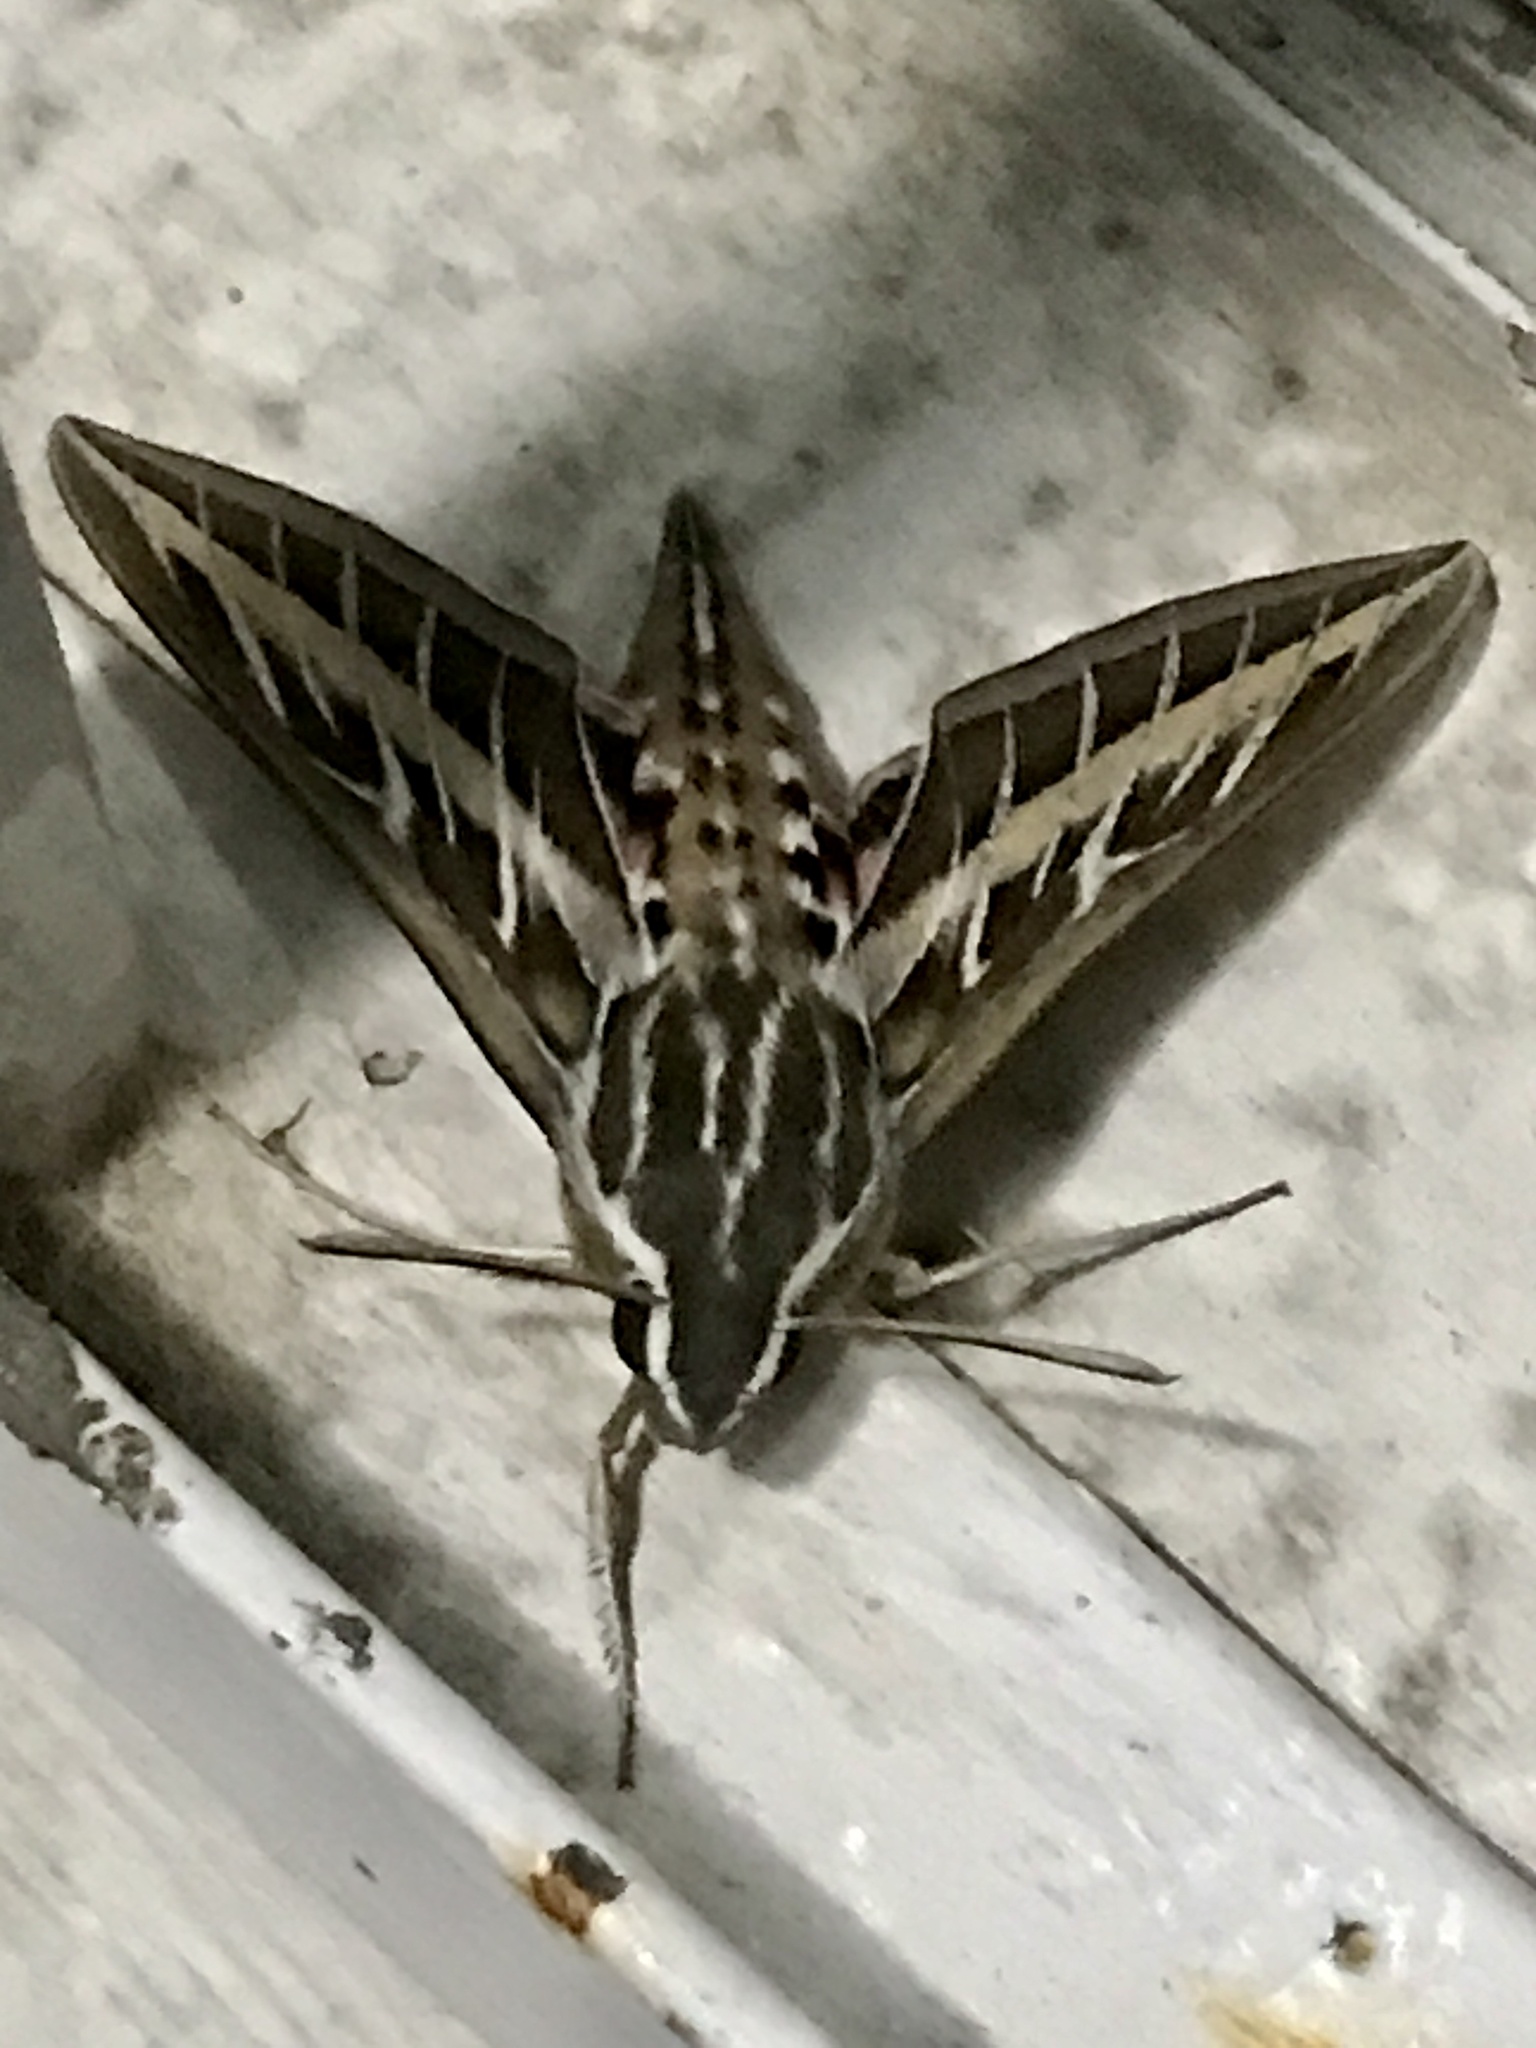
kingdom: Animalia
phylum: Arthropoda
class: Insecta
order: Lepidoptera
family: Sphingidae
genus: Hyles
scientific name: Hyles lineata
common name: White-lined sphinx
